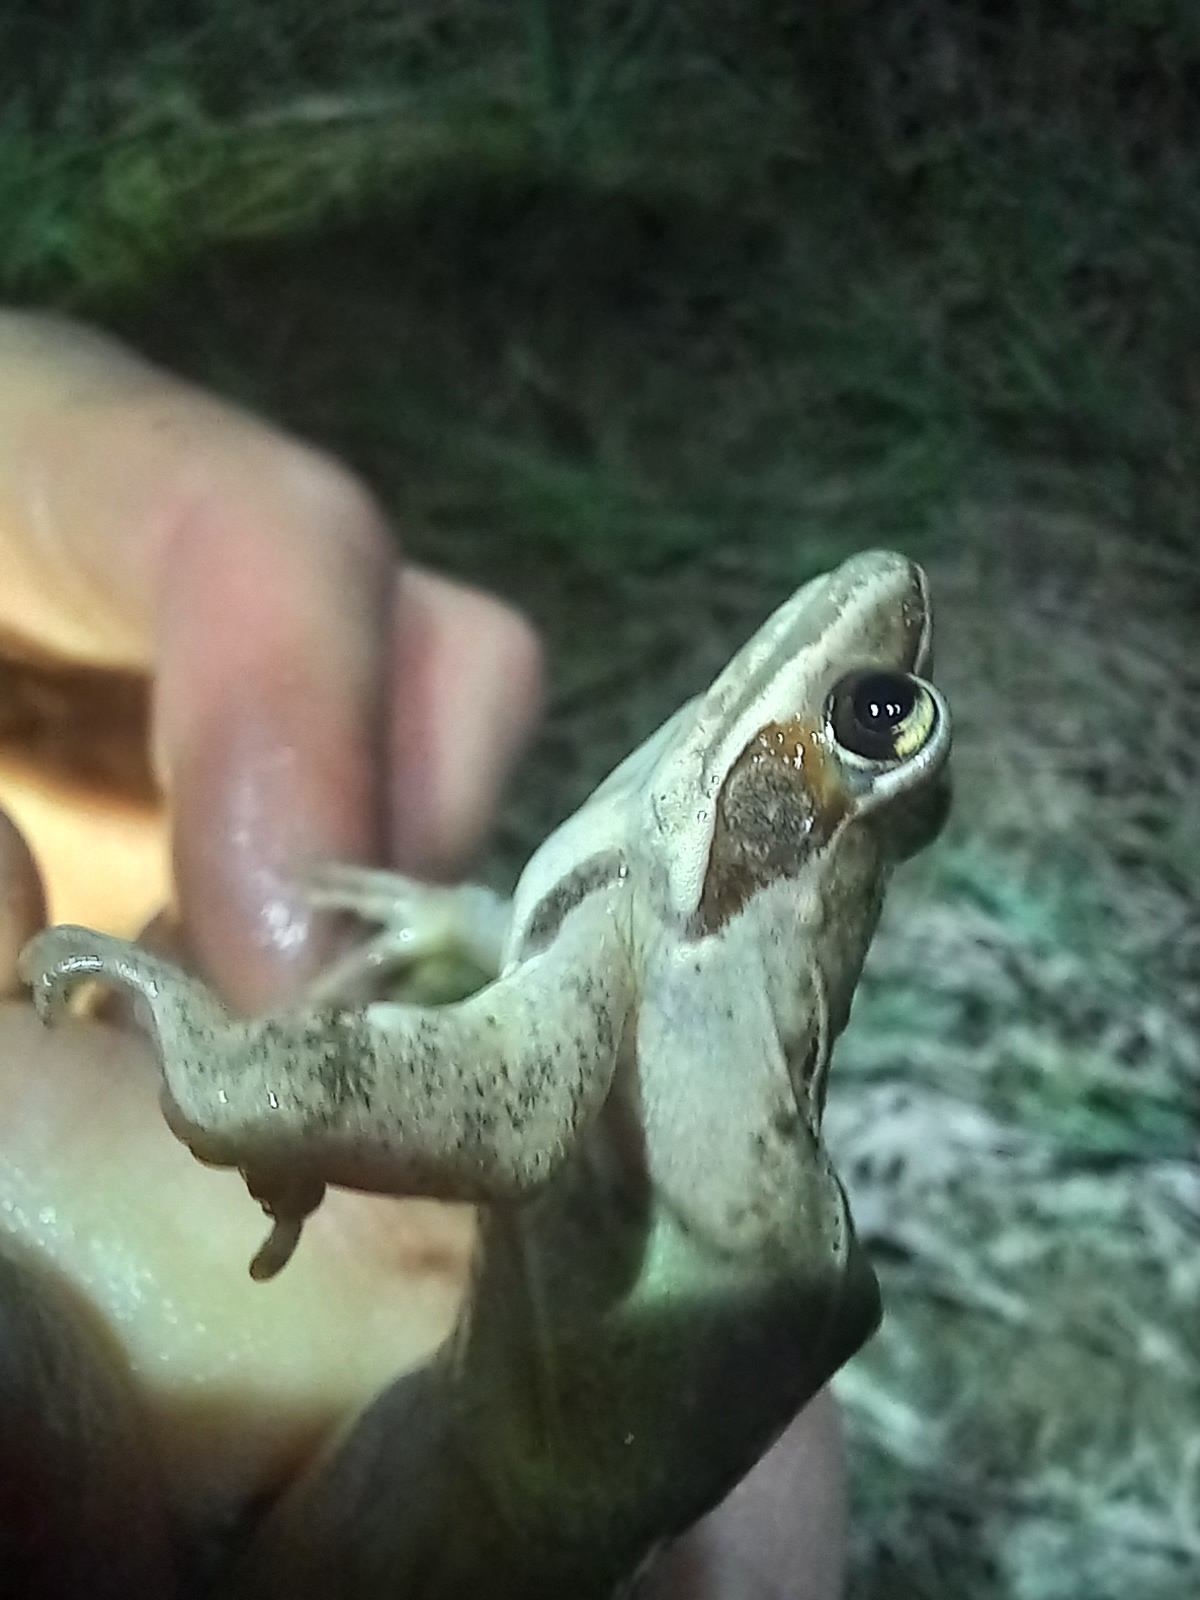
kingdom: Animalia
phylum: Chordata
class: Amphibia
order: Anura
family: Ranidae
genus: Rana
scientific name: Rana dalmatina
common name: Agile frog
